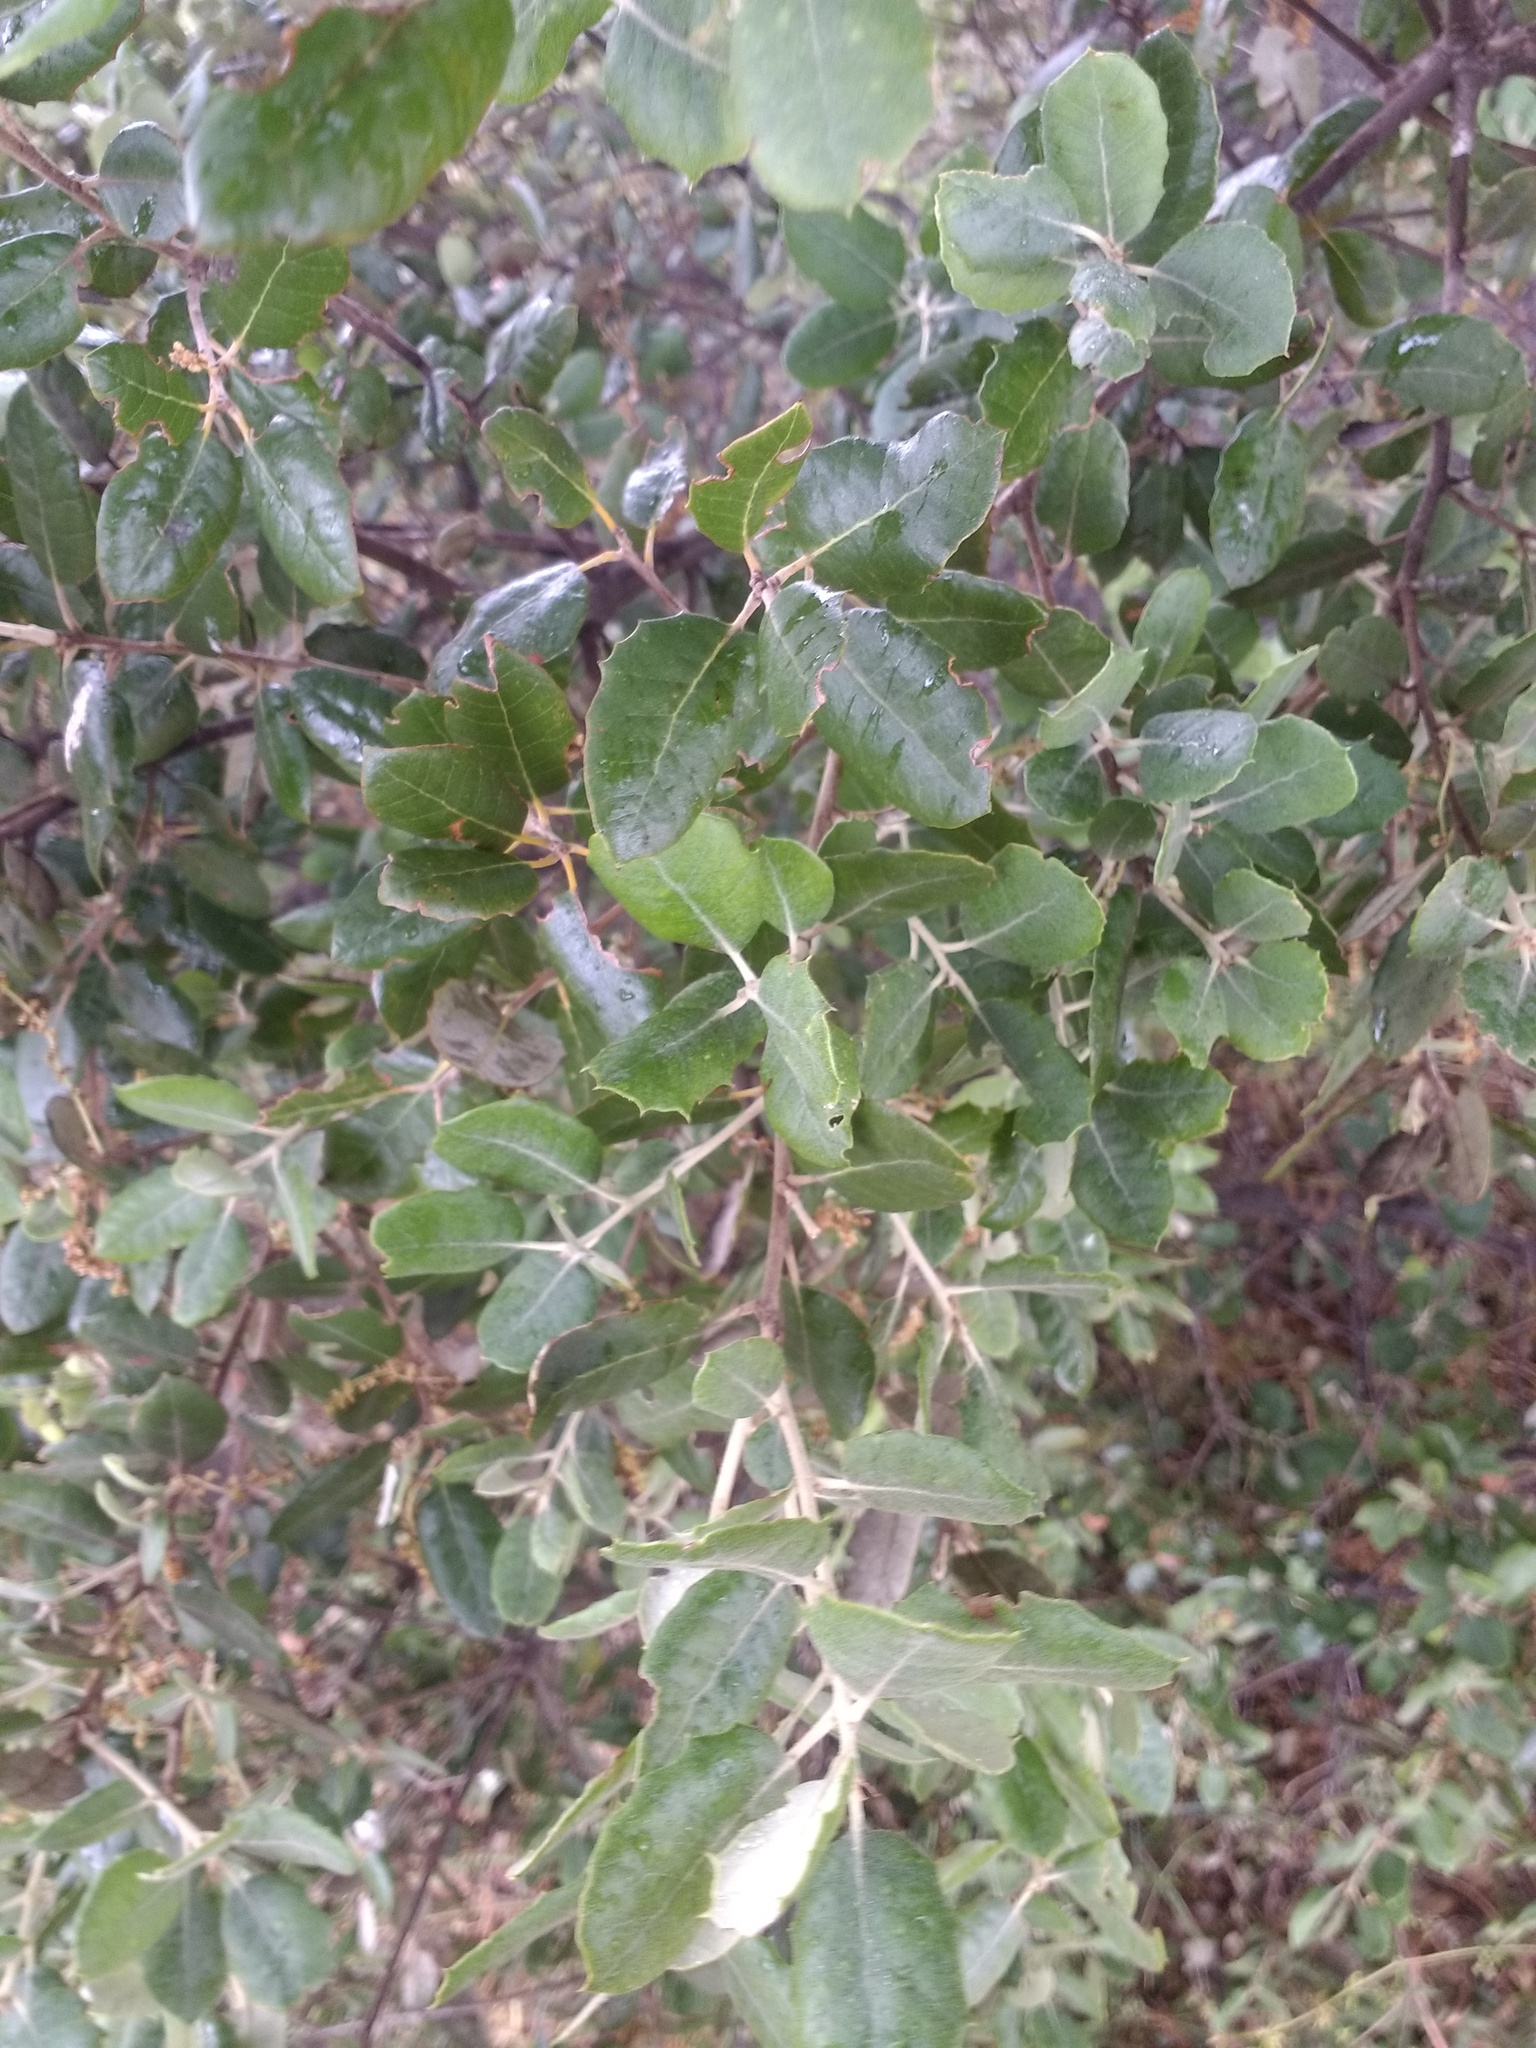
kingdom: Plantae
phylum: Tracheophyta
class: Magnoliopsida
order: Fagales
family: Fagaceae
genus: Quercus
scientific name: Quercus rotundifolia
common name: Holm oak
